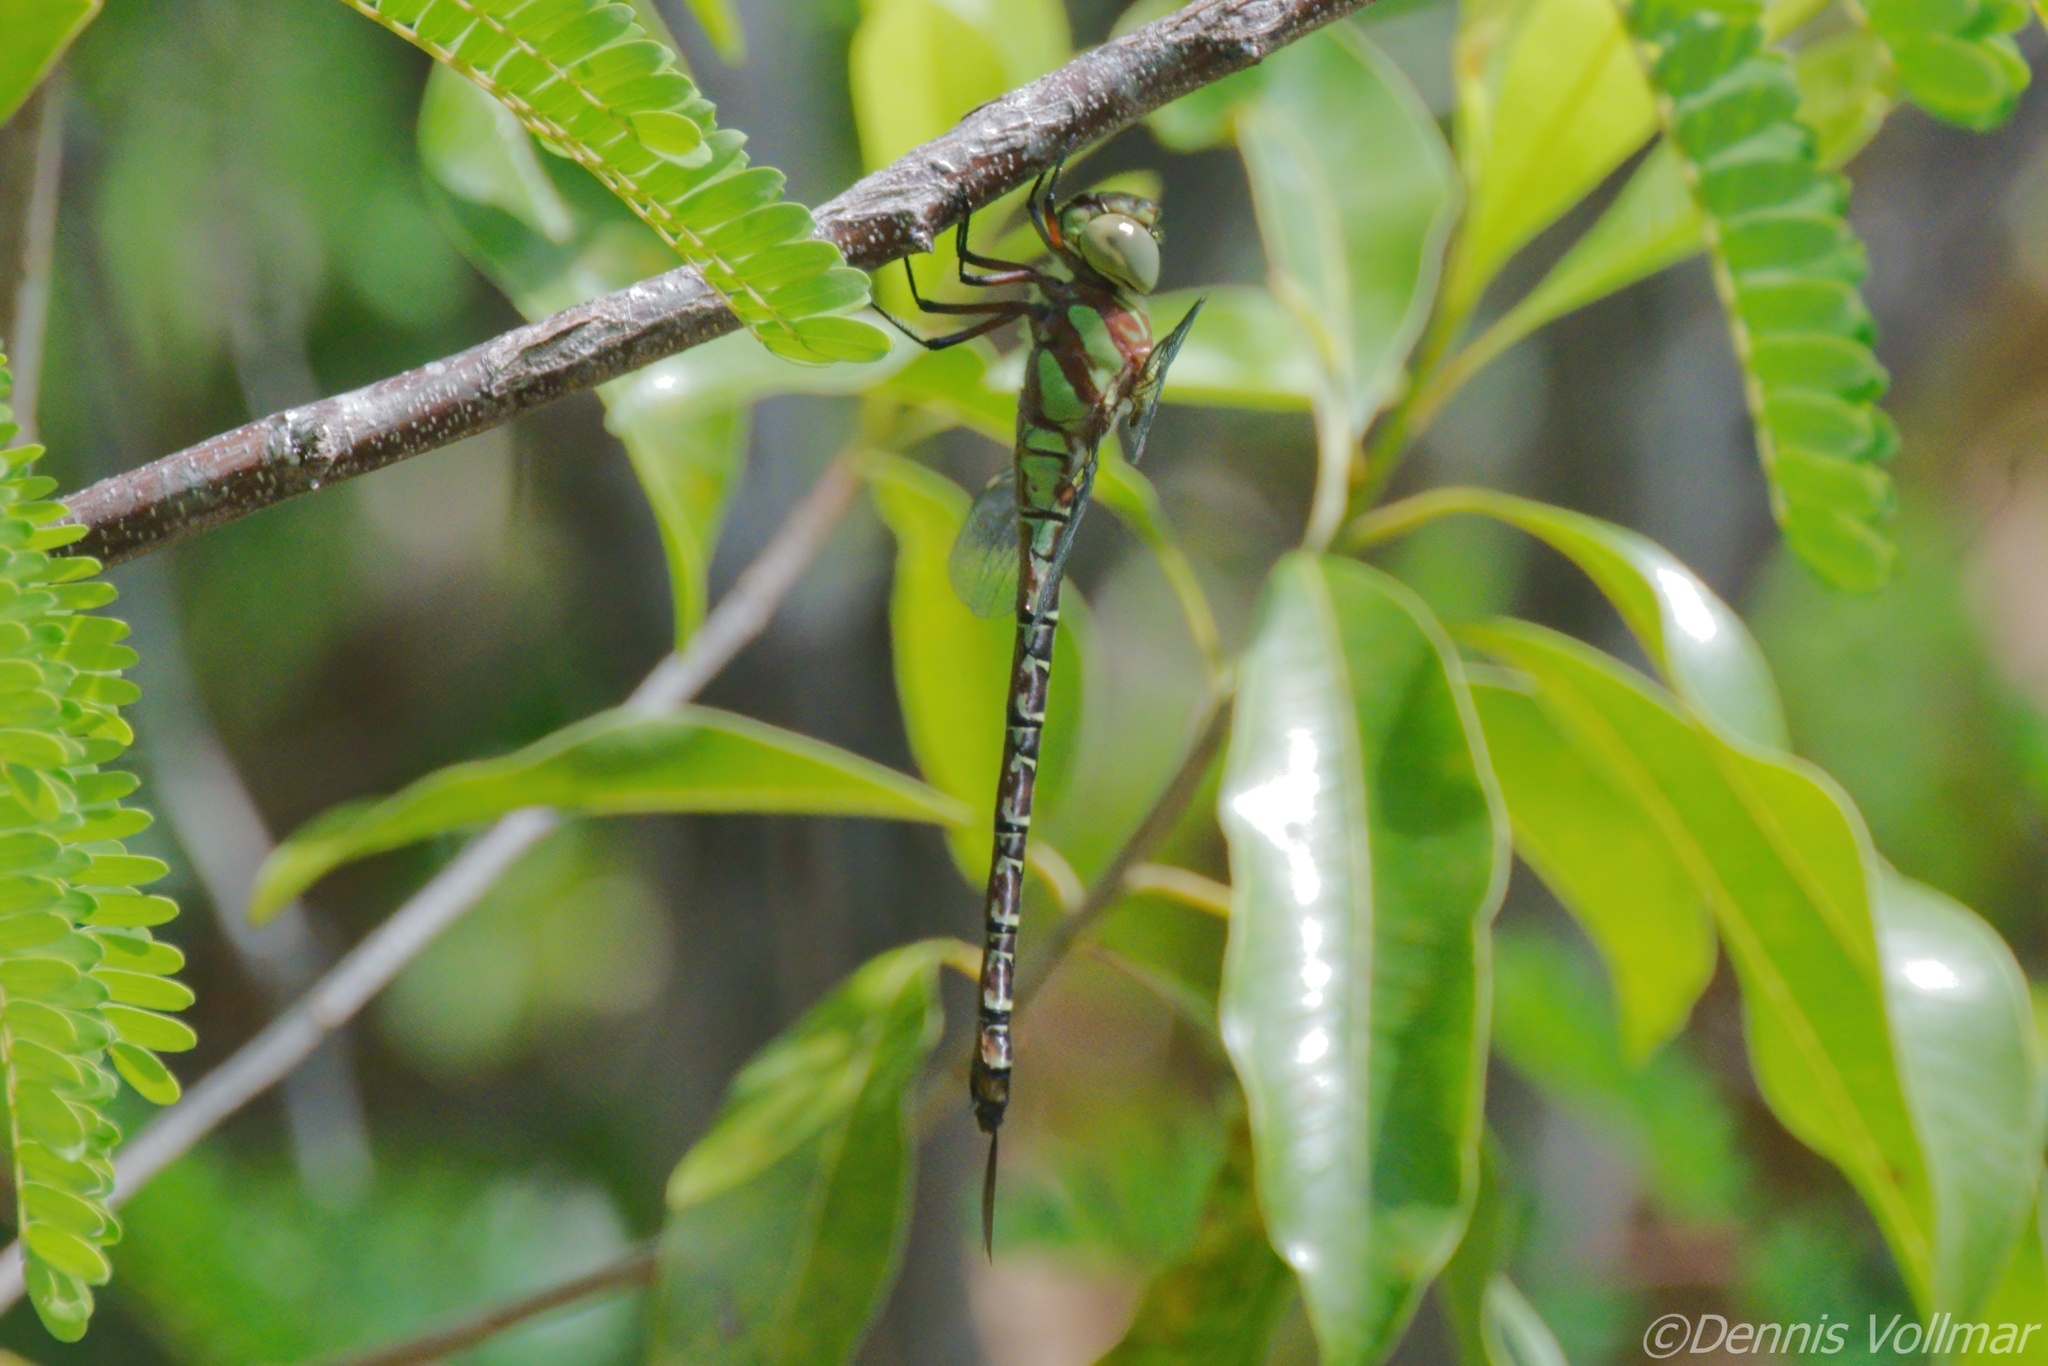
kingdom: Animalia
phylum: Arthropoda
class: Insecta
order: Odonata
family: Aeshnidae
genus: Coryphaeschna
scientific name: Coryphaeschna ingens
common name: Regal darner
